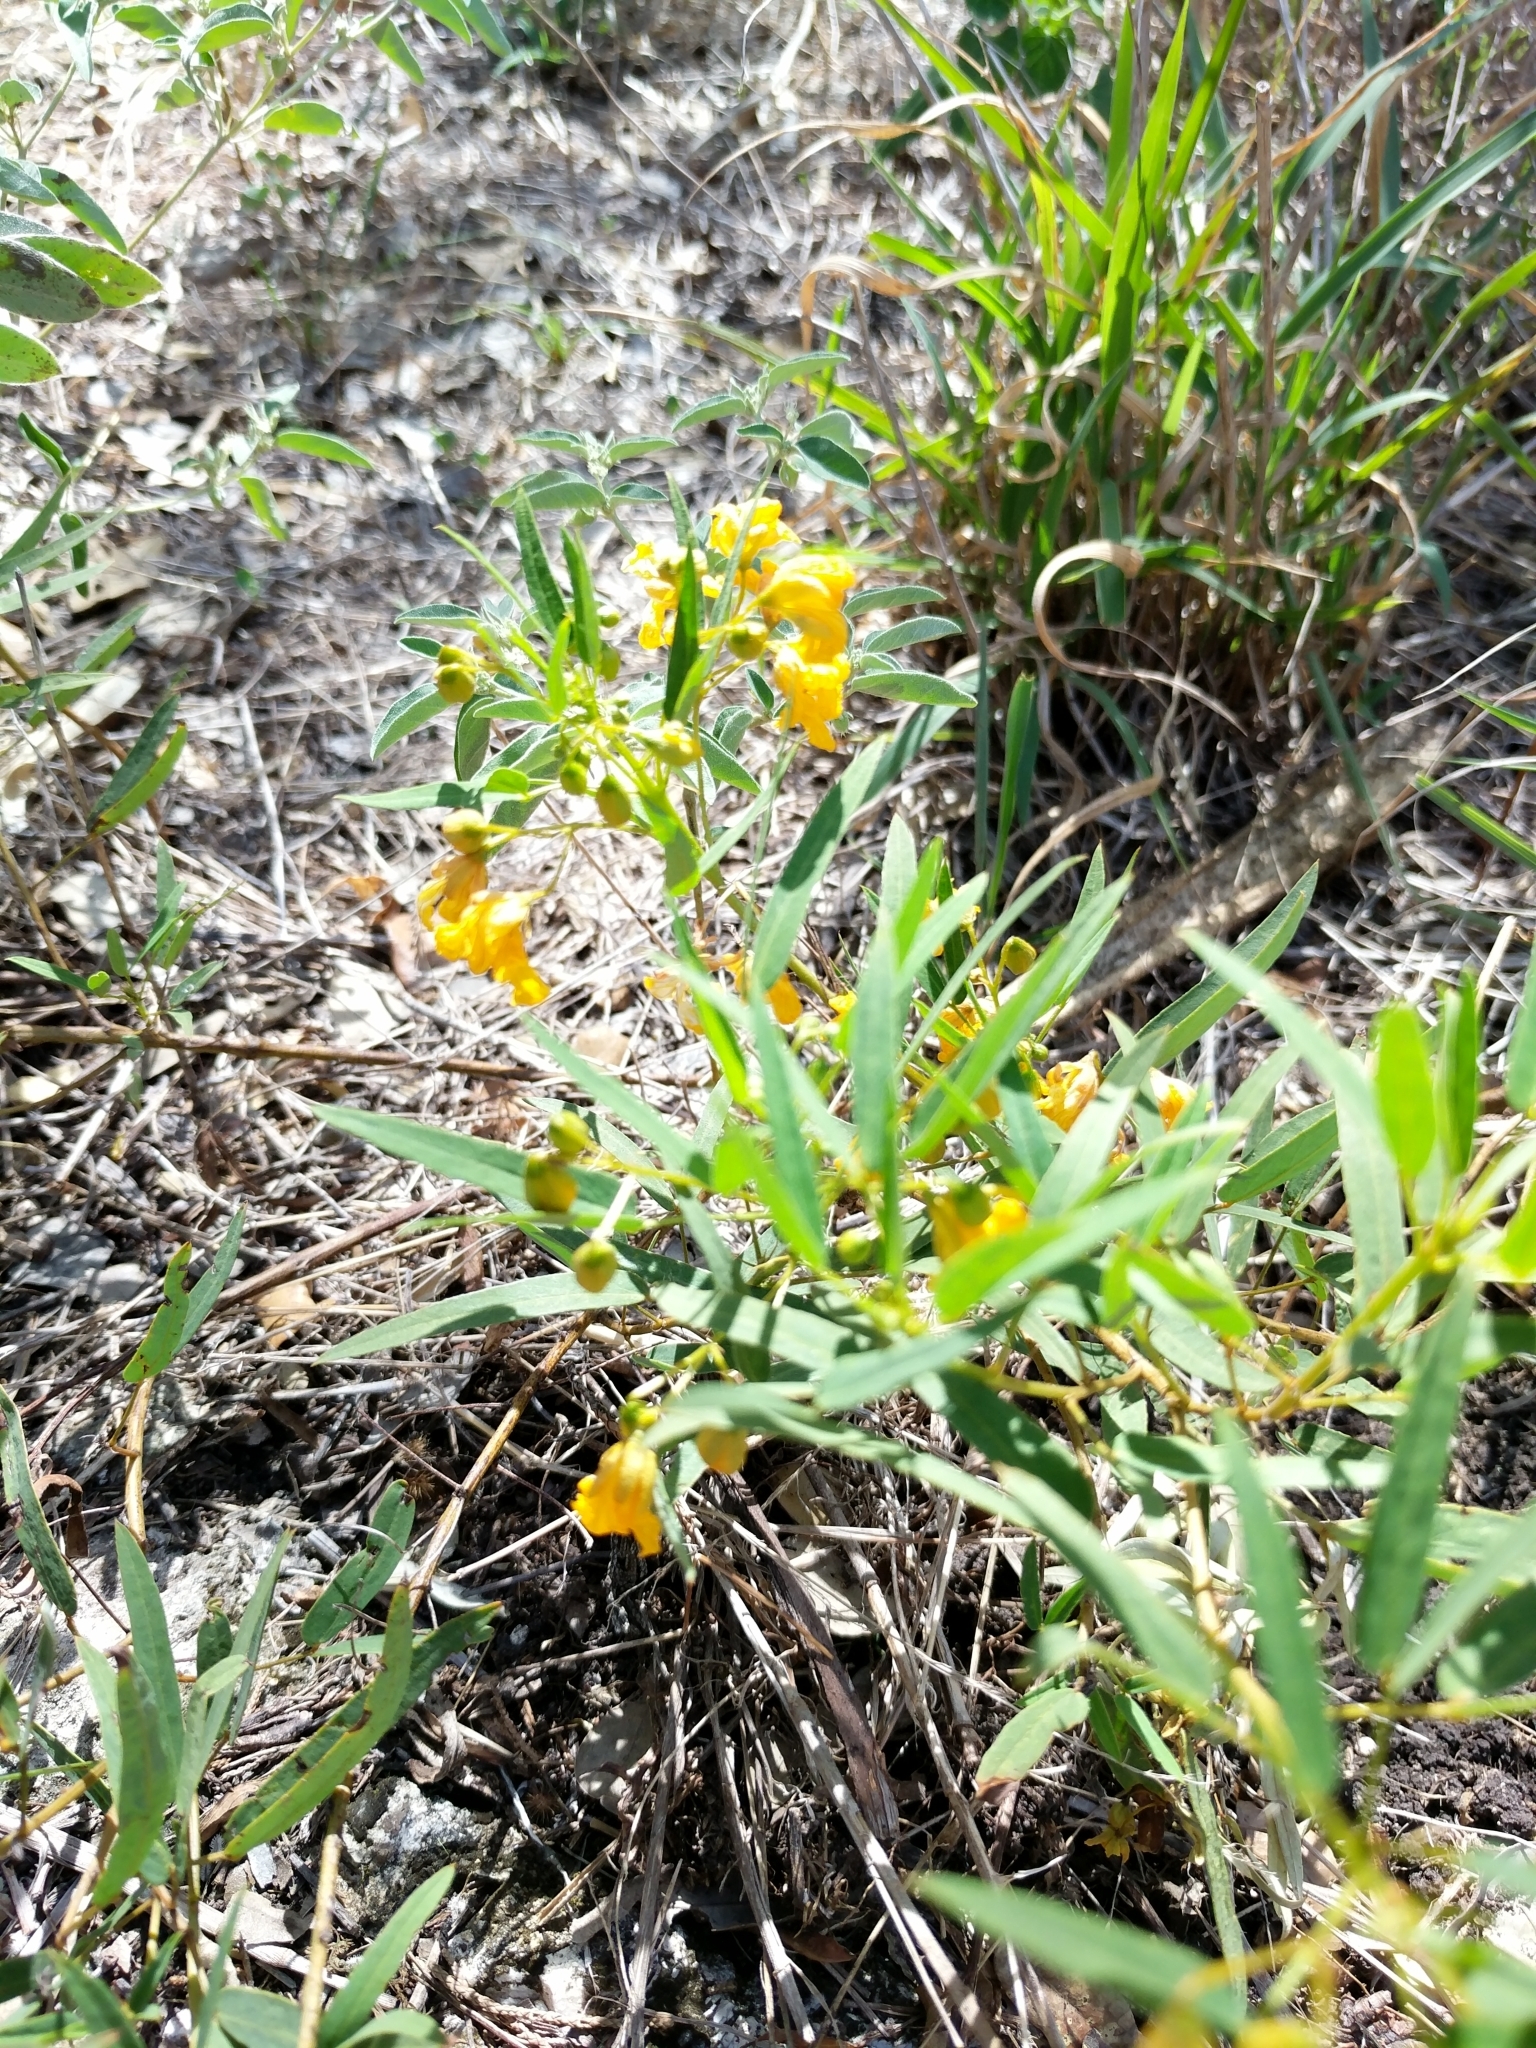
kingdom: Plantae
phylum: Tracheophyta
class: Magnoliopsida
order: Fabales
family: Fabaceae
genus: Senna
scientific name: Senna roemeriana
